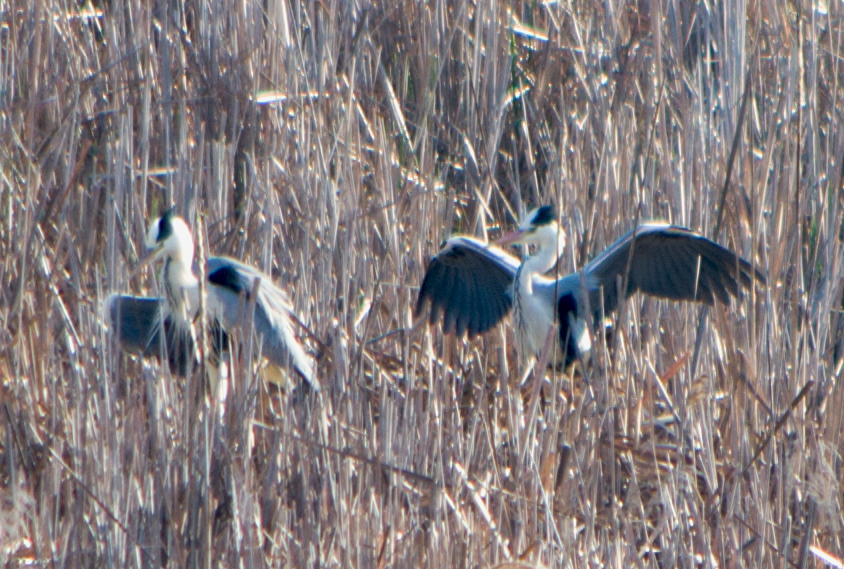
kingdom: Animalia
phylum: Chordata
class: Aves
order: Pelecaniformes
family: Ardeidae
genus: Ardea
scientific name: Ardea cinerea
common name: Grey heron
